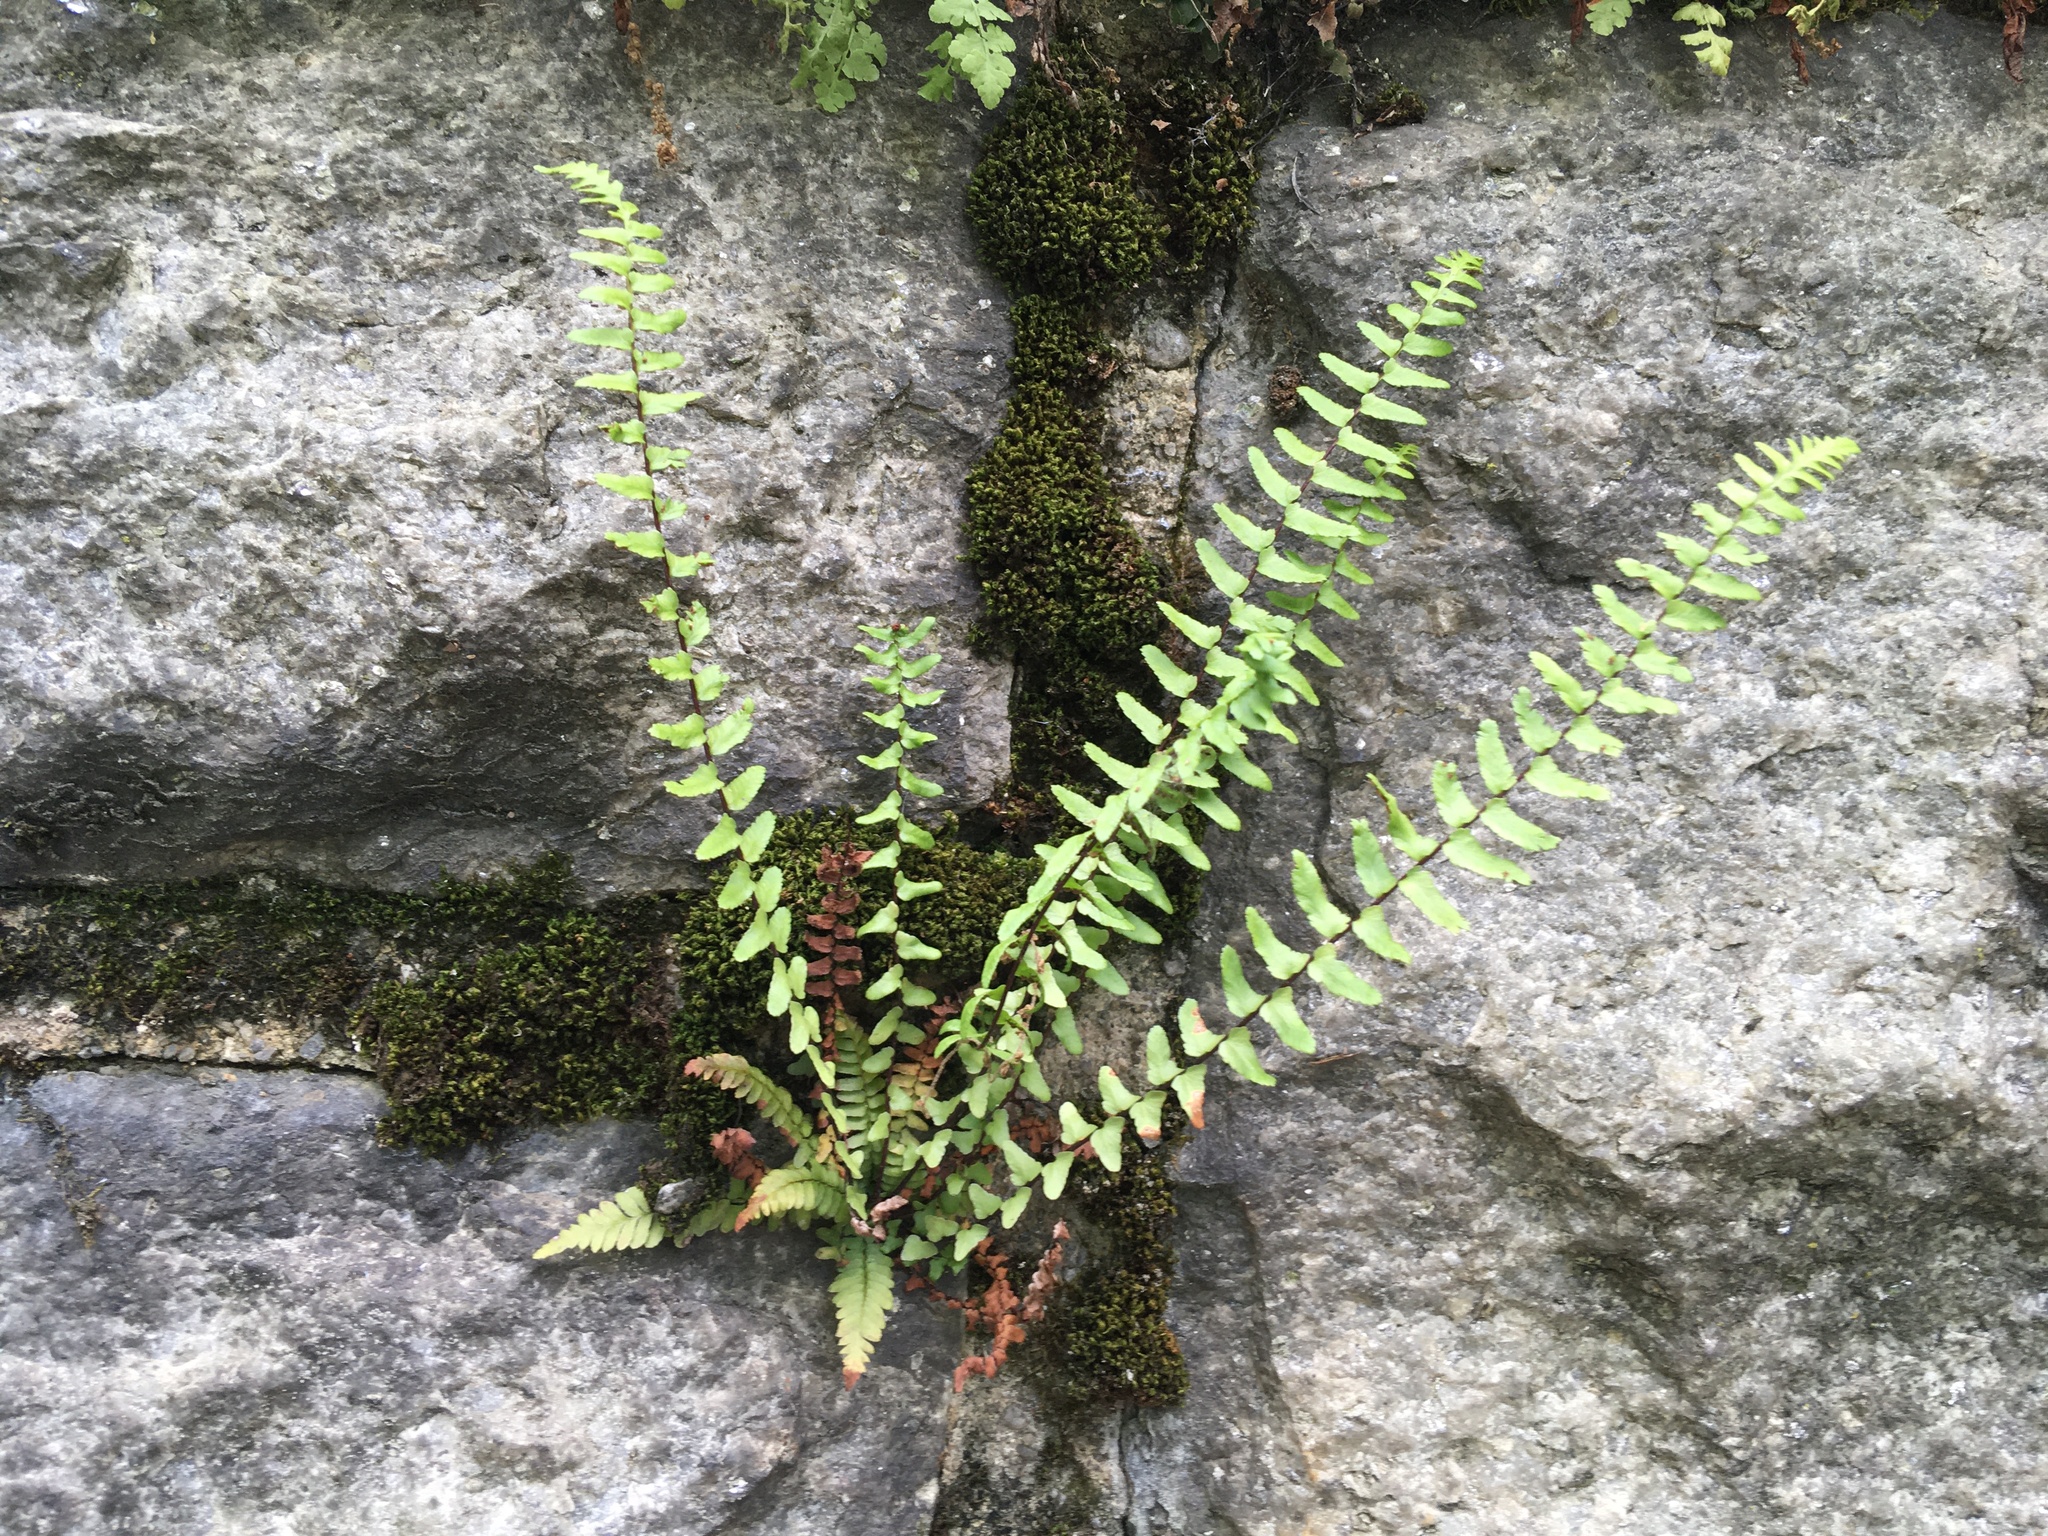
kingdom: Plantae
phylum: Tracheophyta
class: Polypodiopsida
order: Polypodiales
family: Aspleniaceae
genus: Asplenium
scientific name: Asplenium platyneuron
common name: Ebony spleenwort
